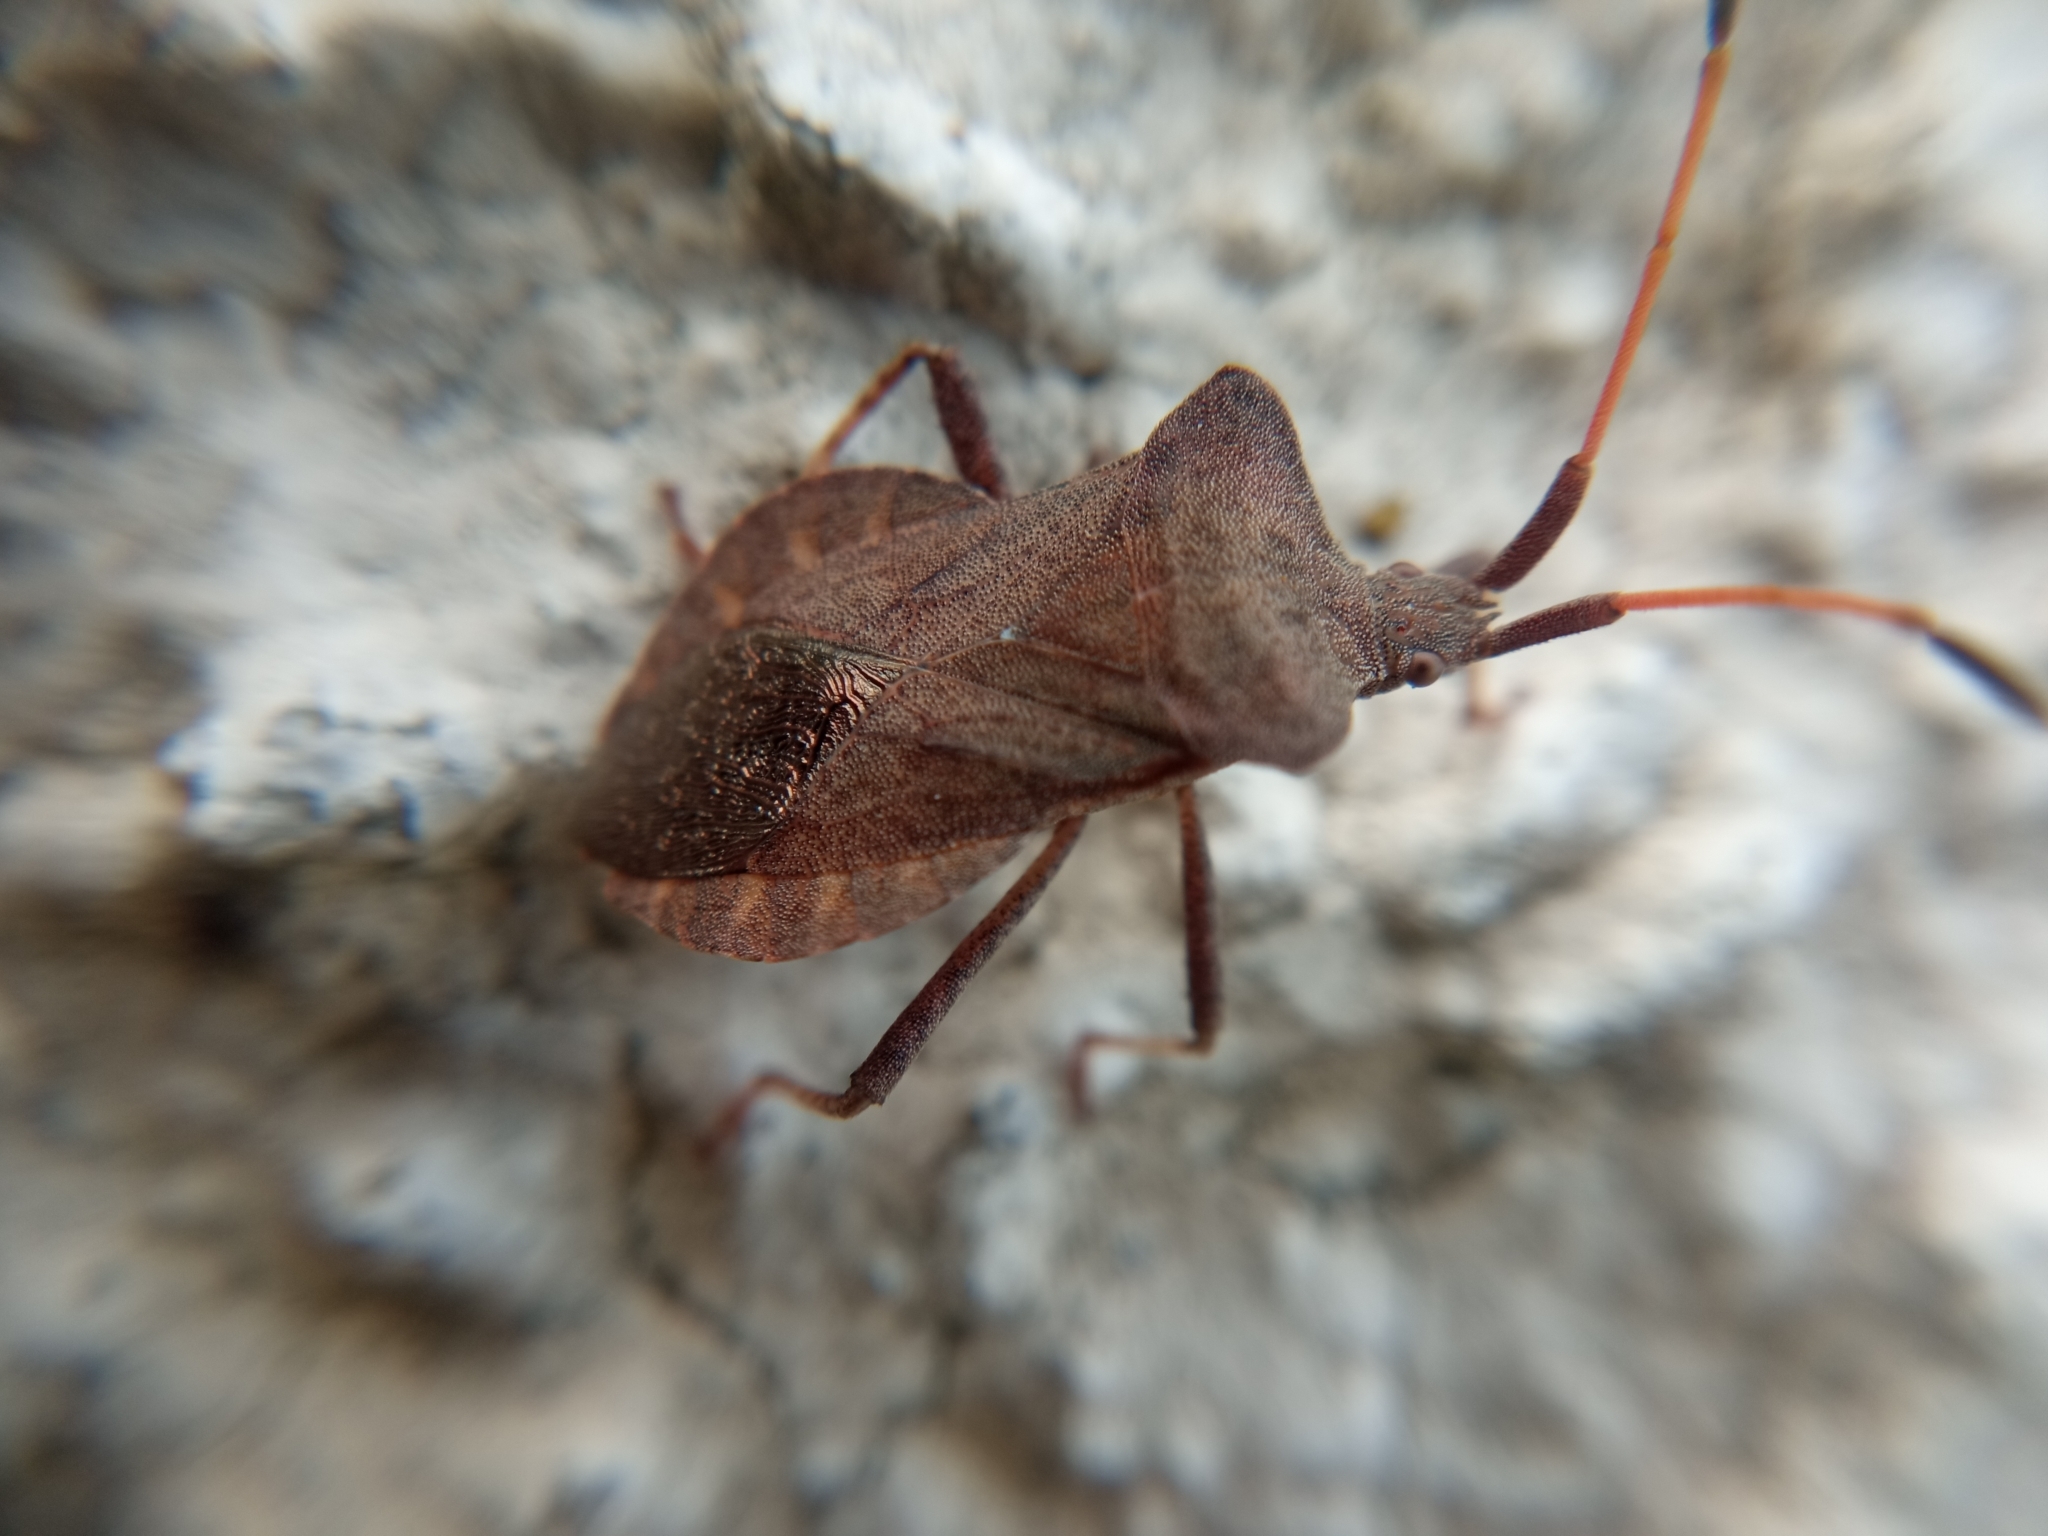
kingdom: Animalia
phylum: Arthropoda
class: Insecta
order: Hemiptera
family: Coreidae
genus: Coreus
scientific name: Coreus marginatus
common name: Dock bug
